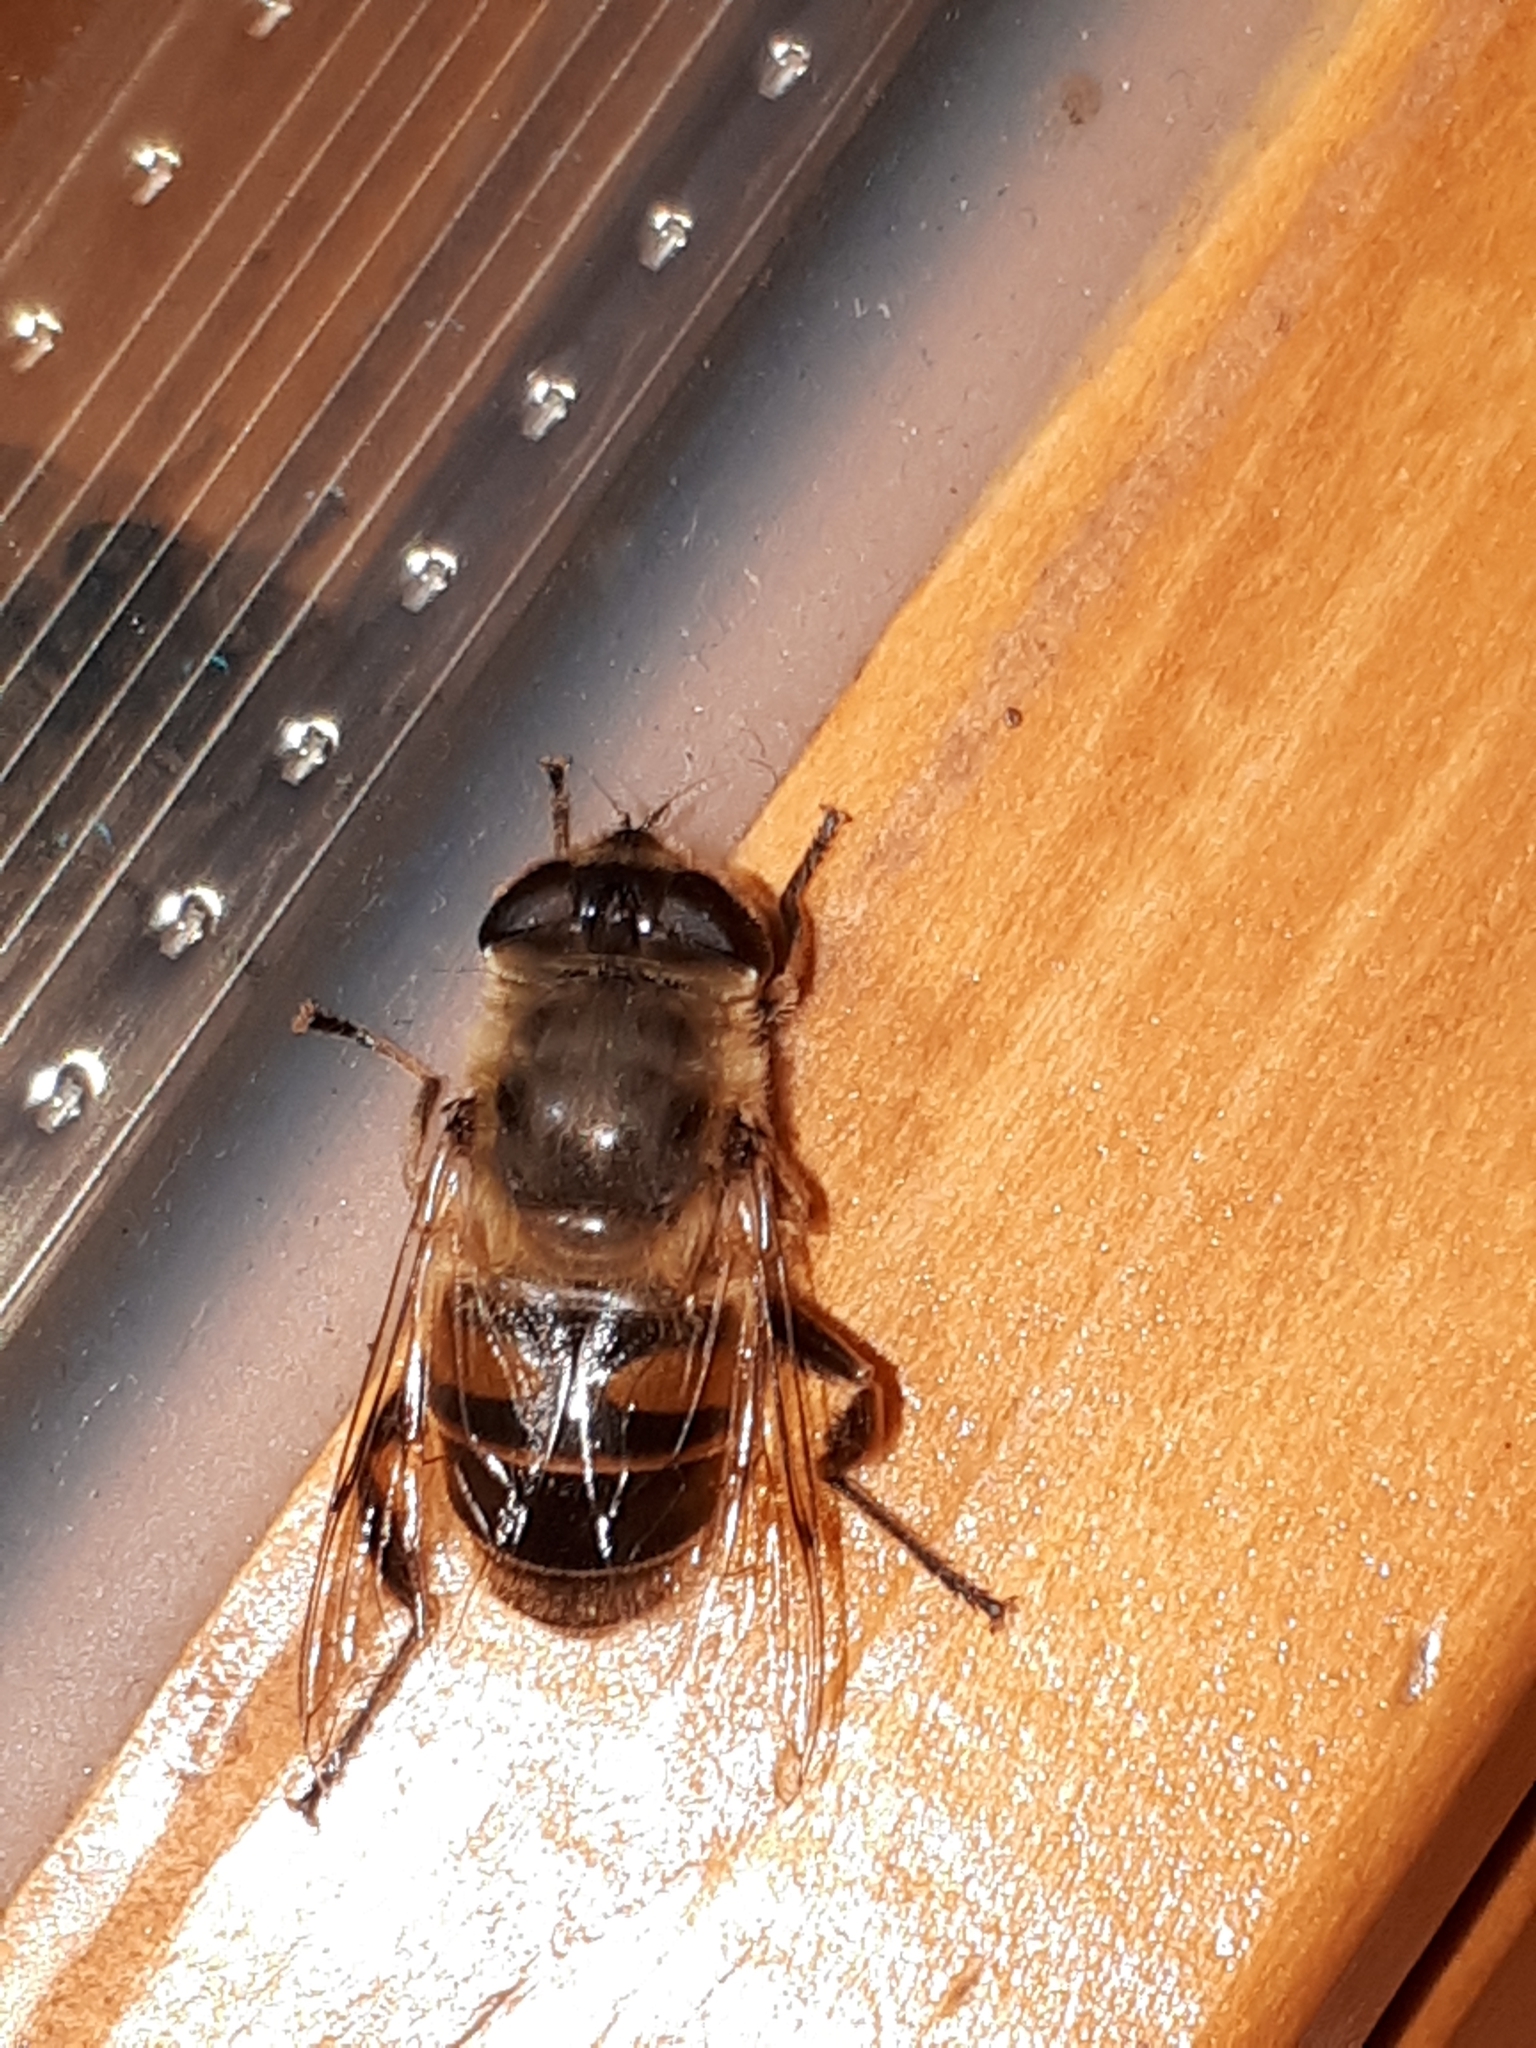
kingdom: Animalia
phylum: Arthropoda
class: Insecta
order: Diptera
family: Syrphidae
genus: Eristalis
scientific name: Eristalis tenax
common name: Drone fly
